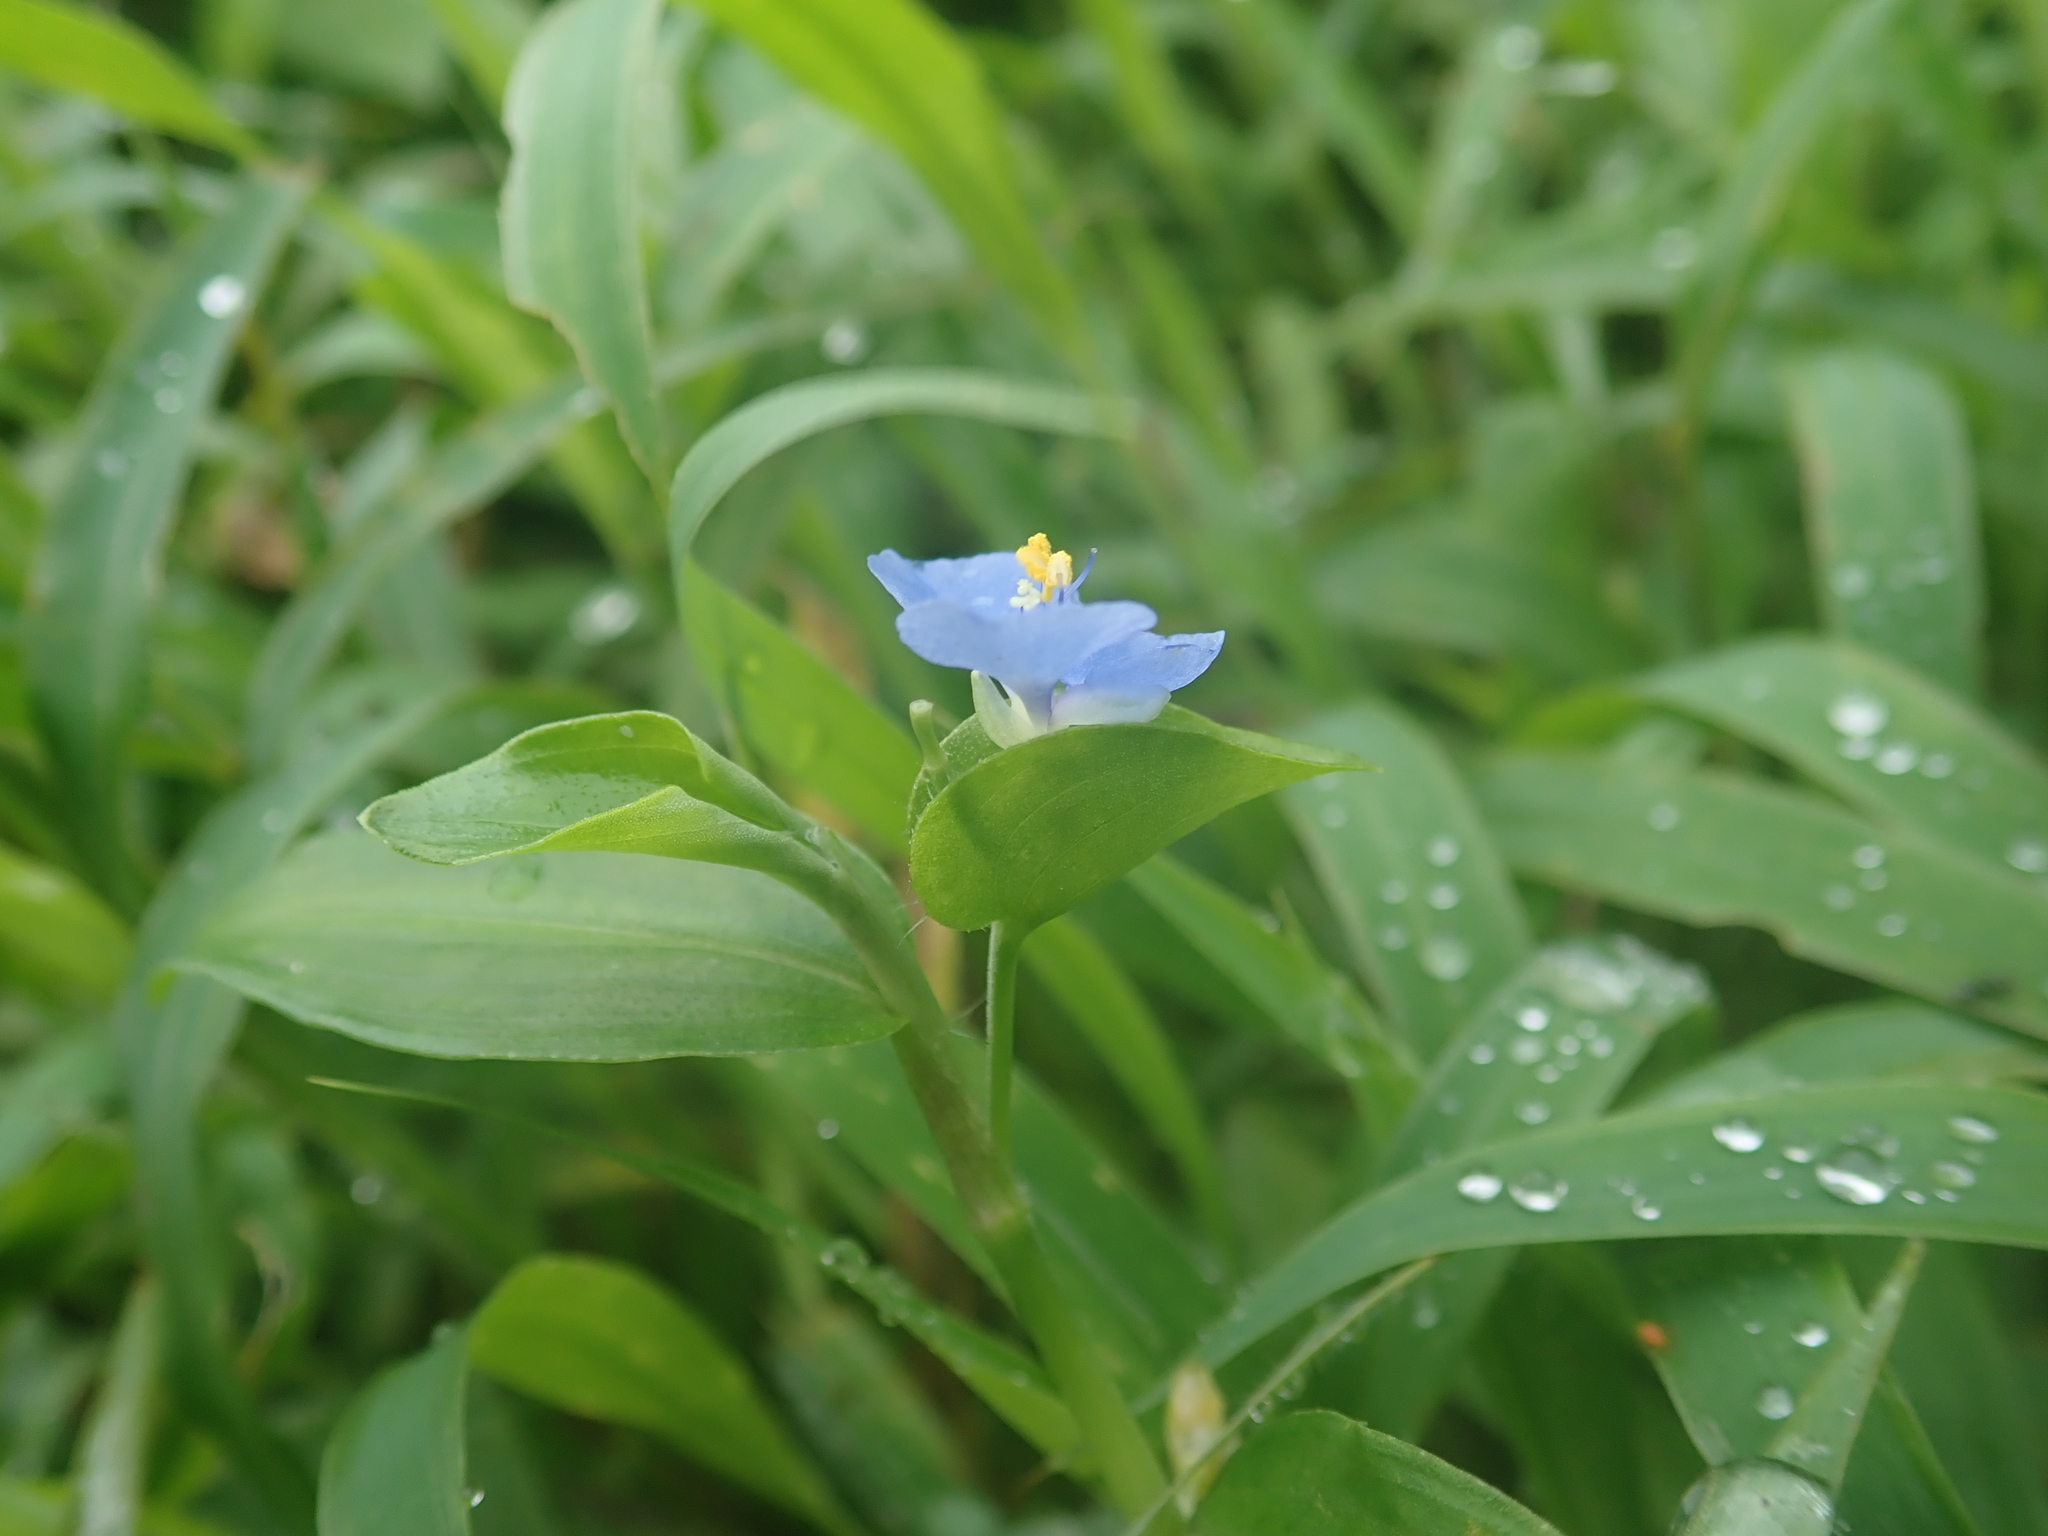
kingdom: Plantae
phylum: Tracheophyta
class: Liliopsida
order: Commelinales
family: Commelinaceae
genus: Commelina
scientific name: Commelina diffusa
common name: Climbing dayflower
